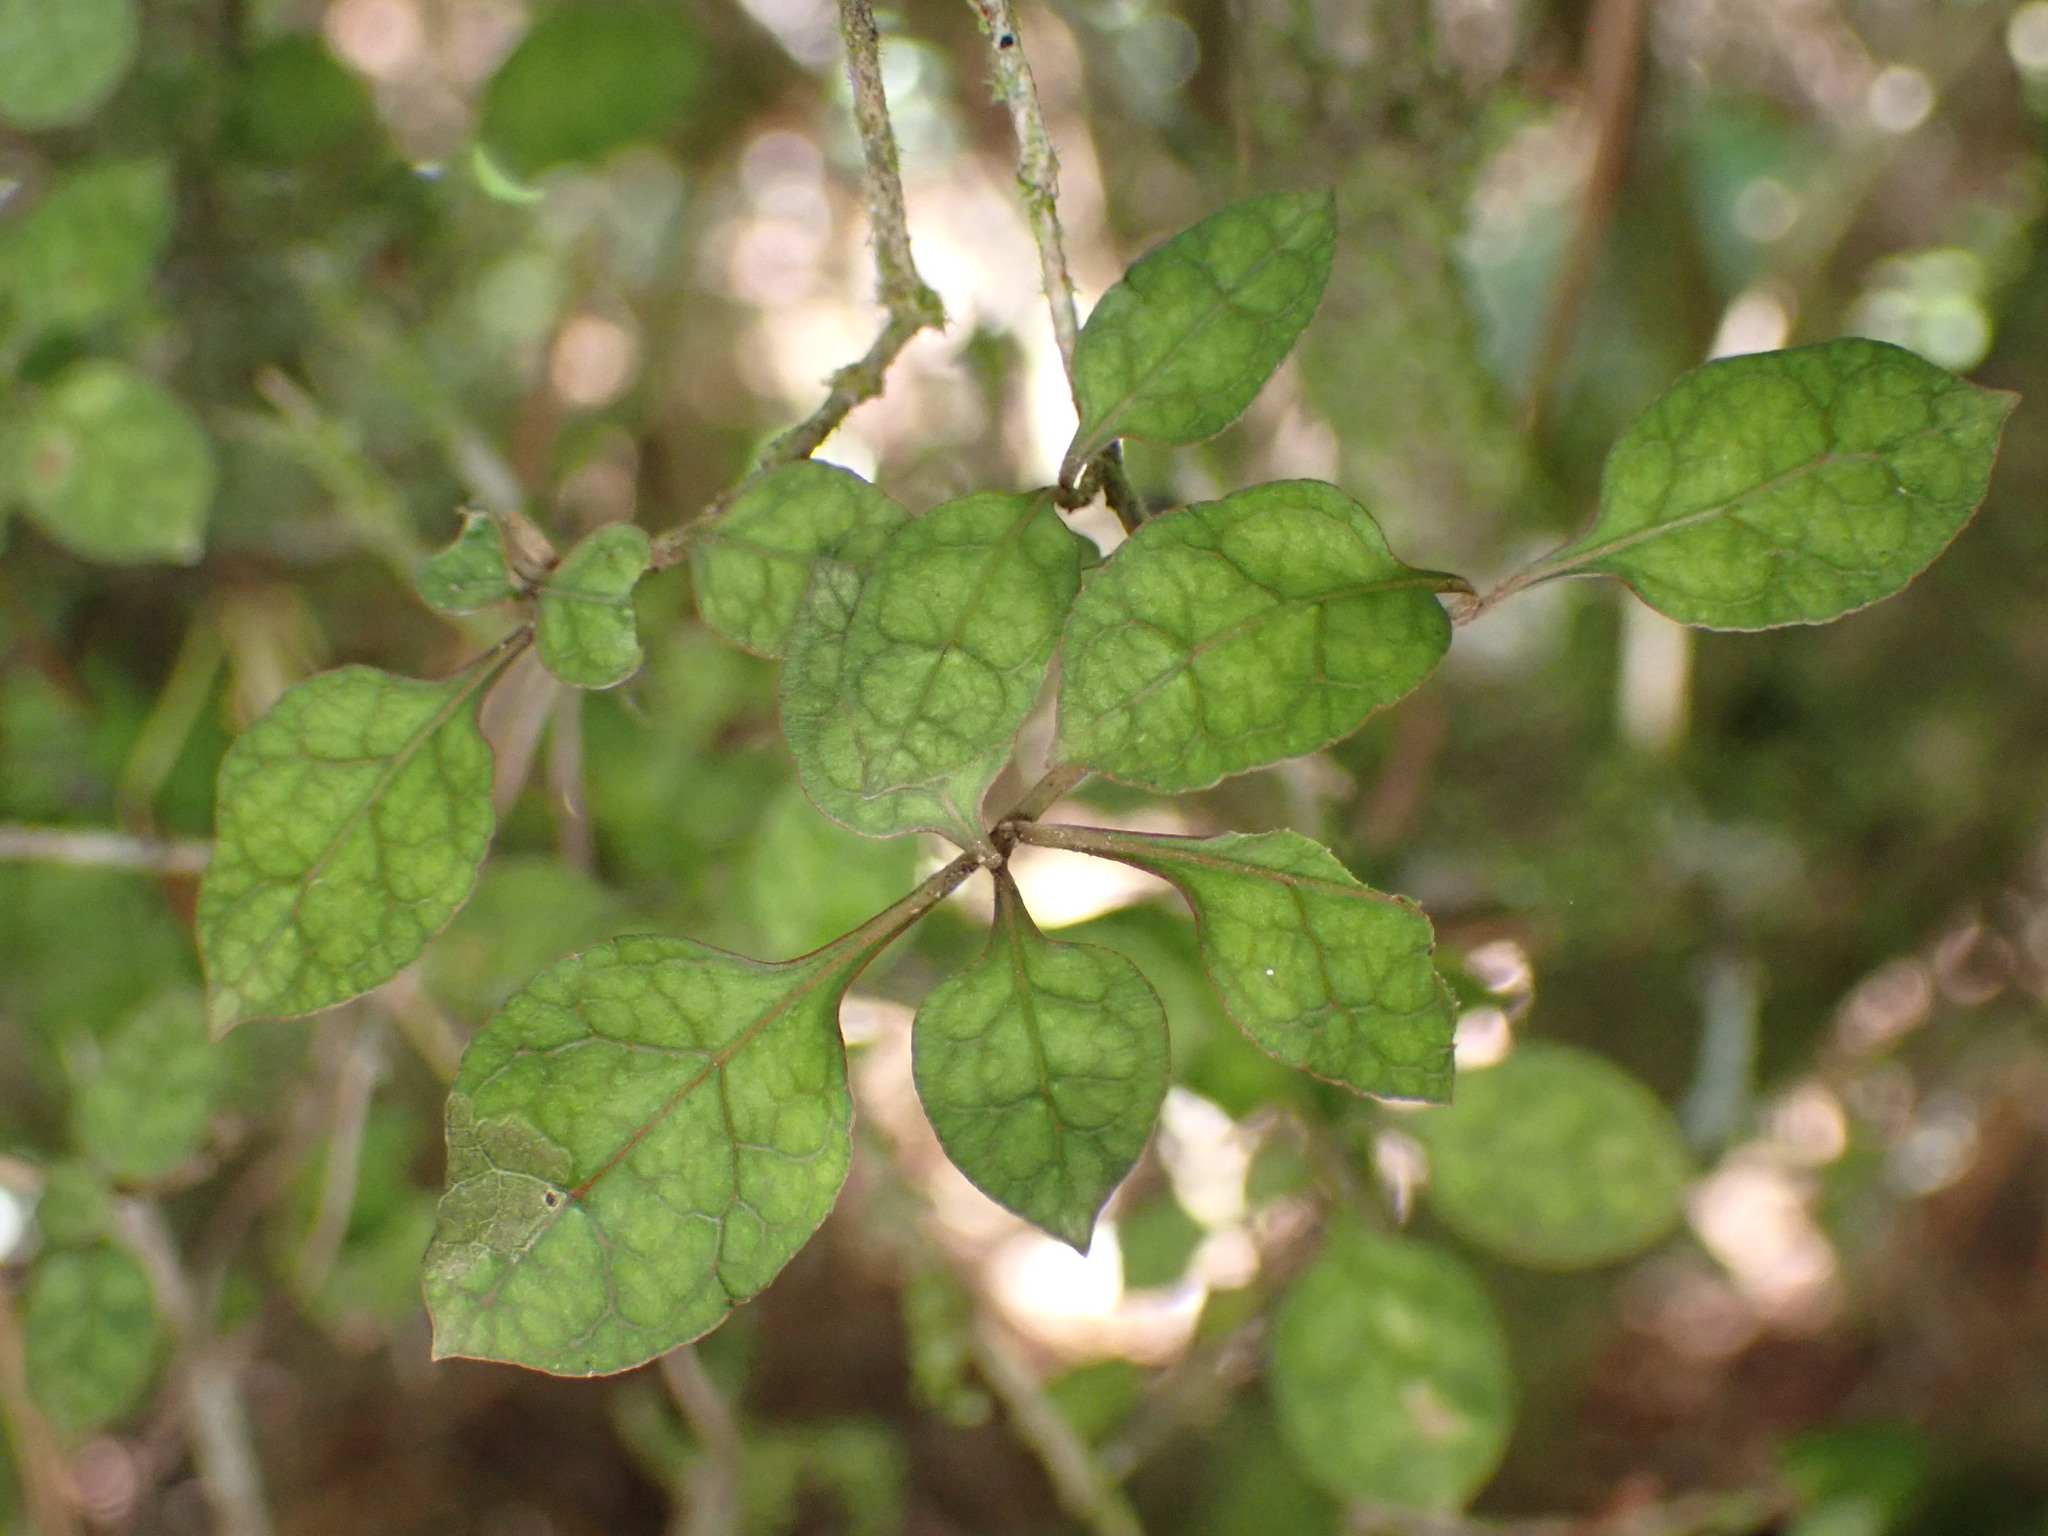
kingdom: Plantae
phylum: Tracheophyta
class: Magnoliopsida
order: Gentianales
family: Rubiaceae
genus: Coprosma
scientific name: Coprosma areolata
